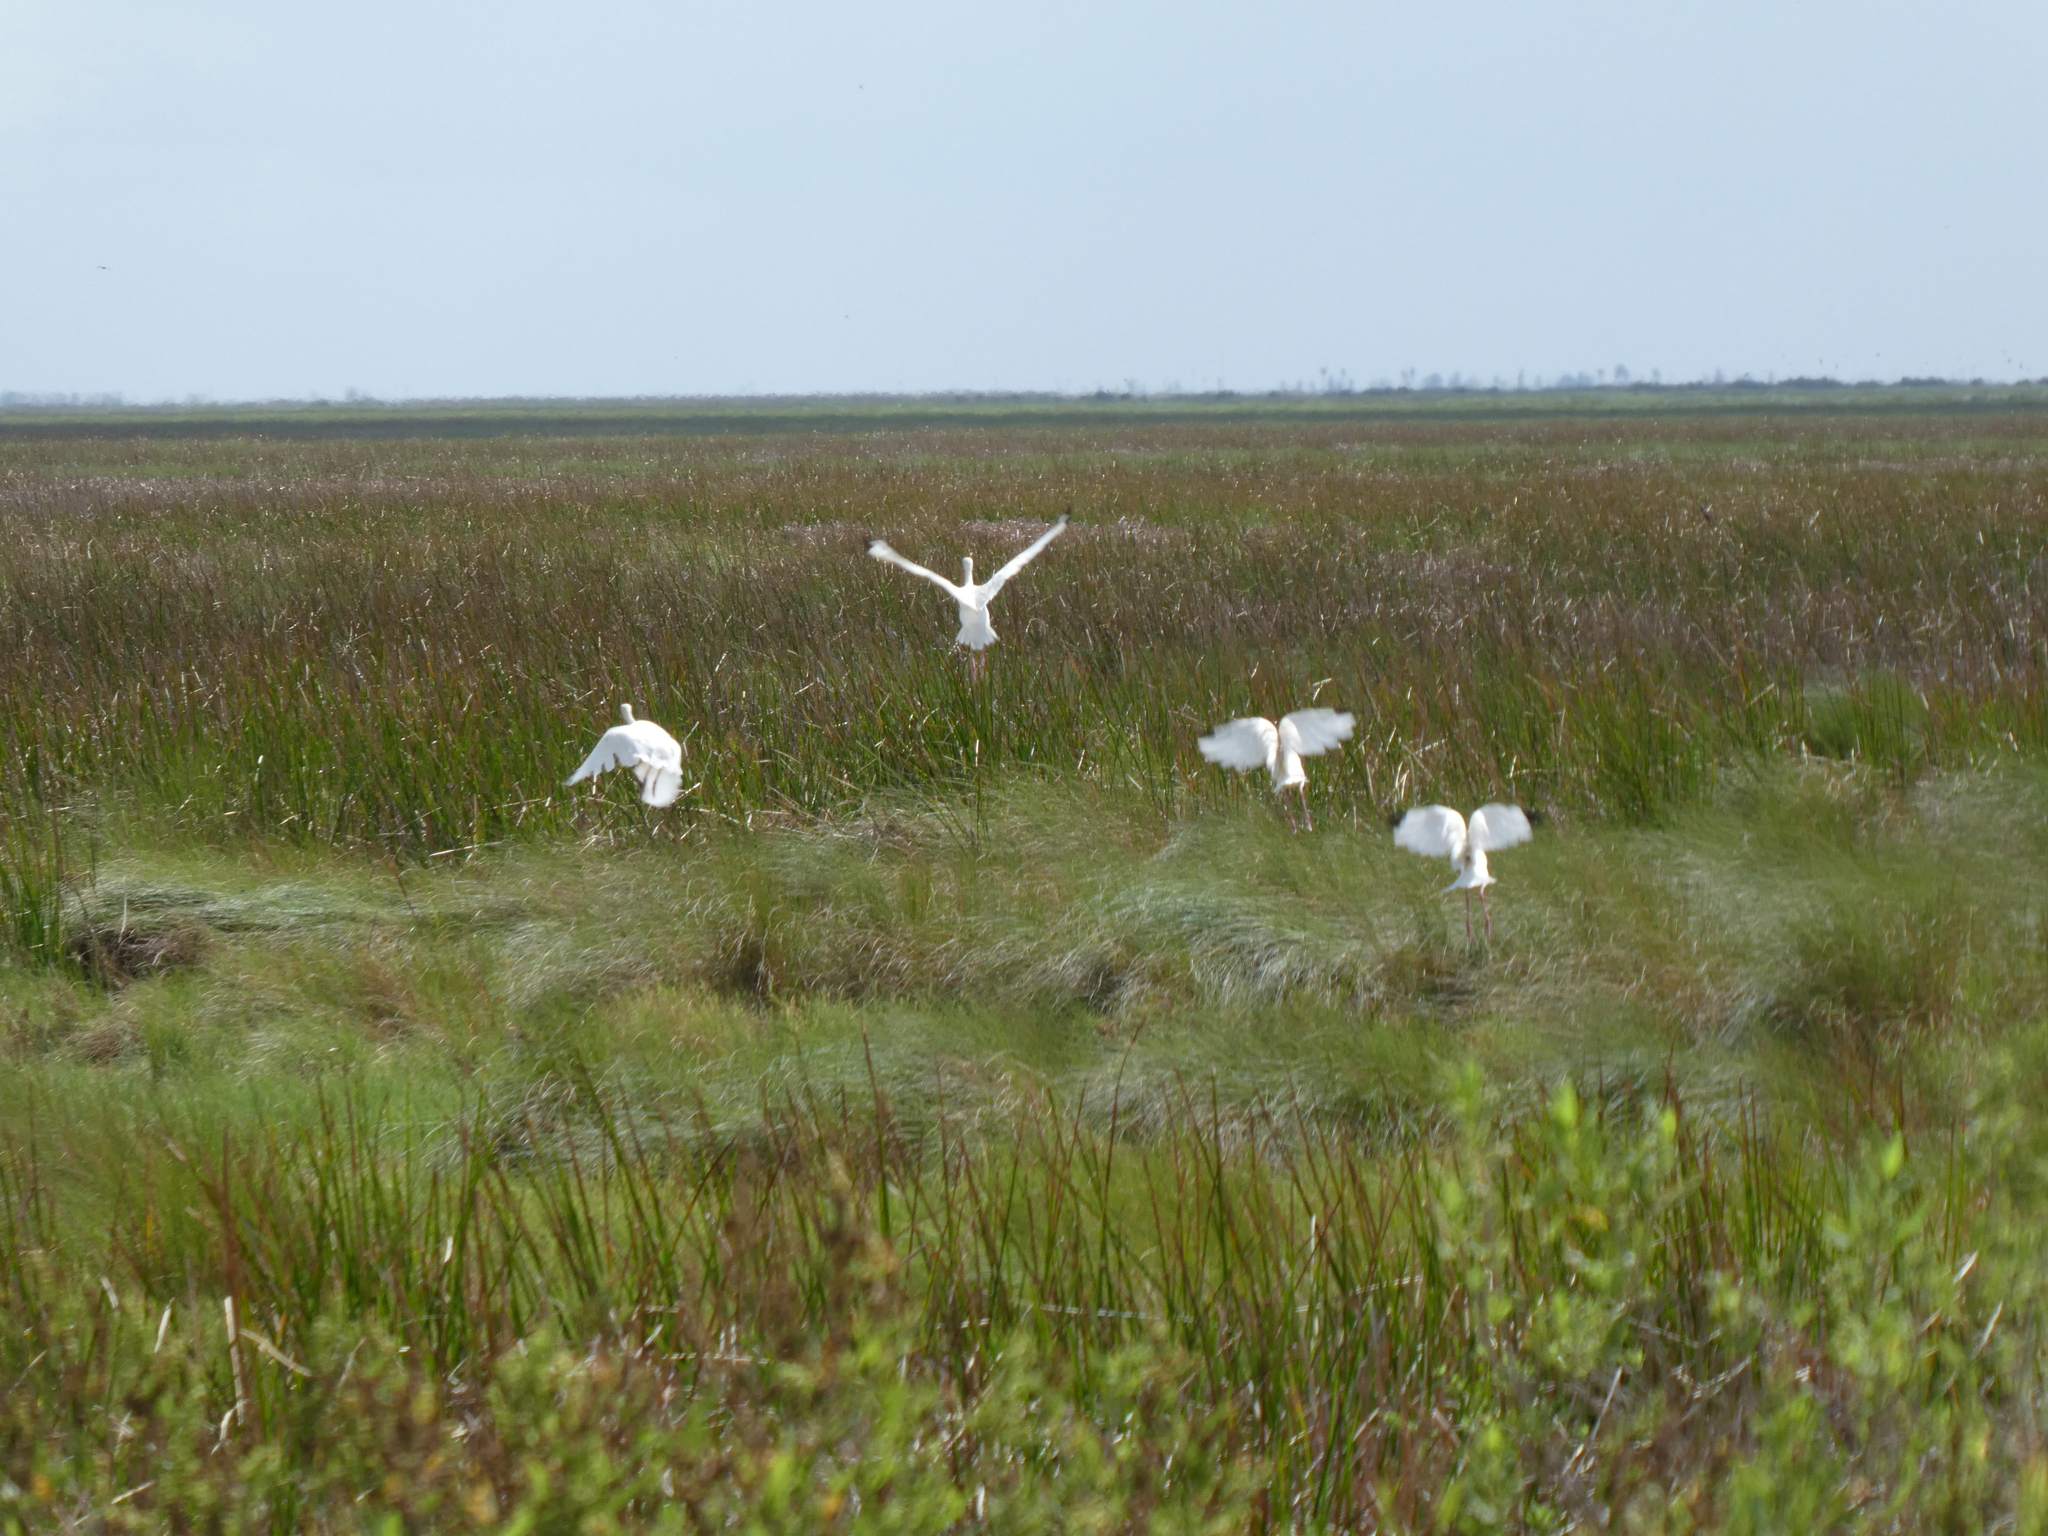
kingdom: Animalia
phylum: Chordata
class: Aves
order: Pelecaniformes
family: Threskiornithidae
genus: Eudocimus
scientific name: Eudocimus albus
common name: White ibis
